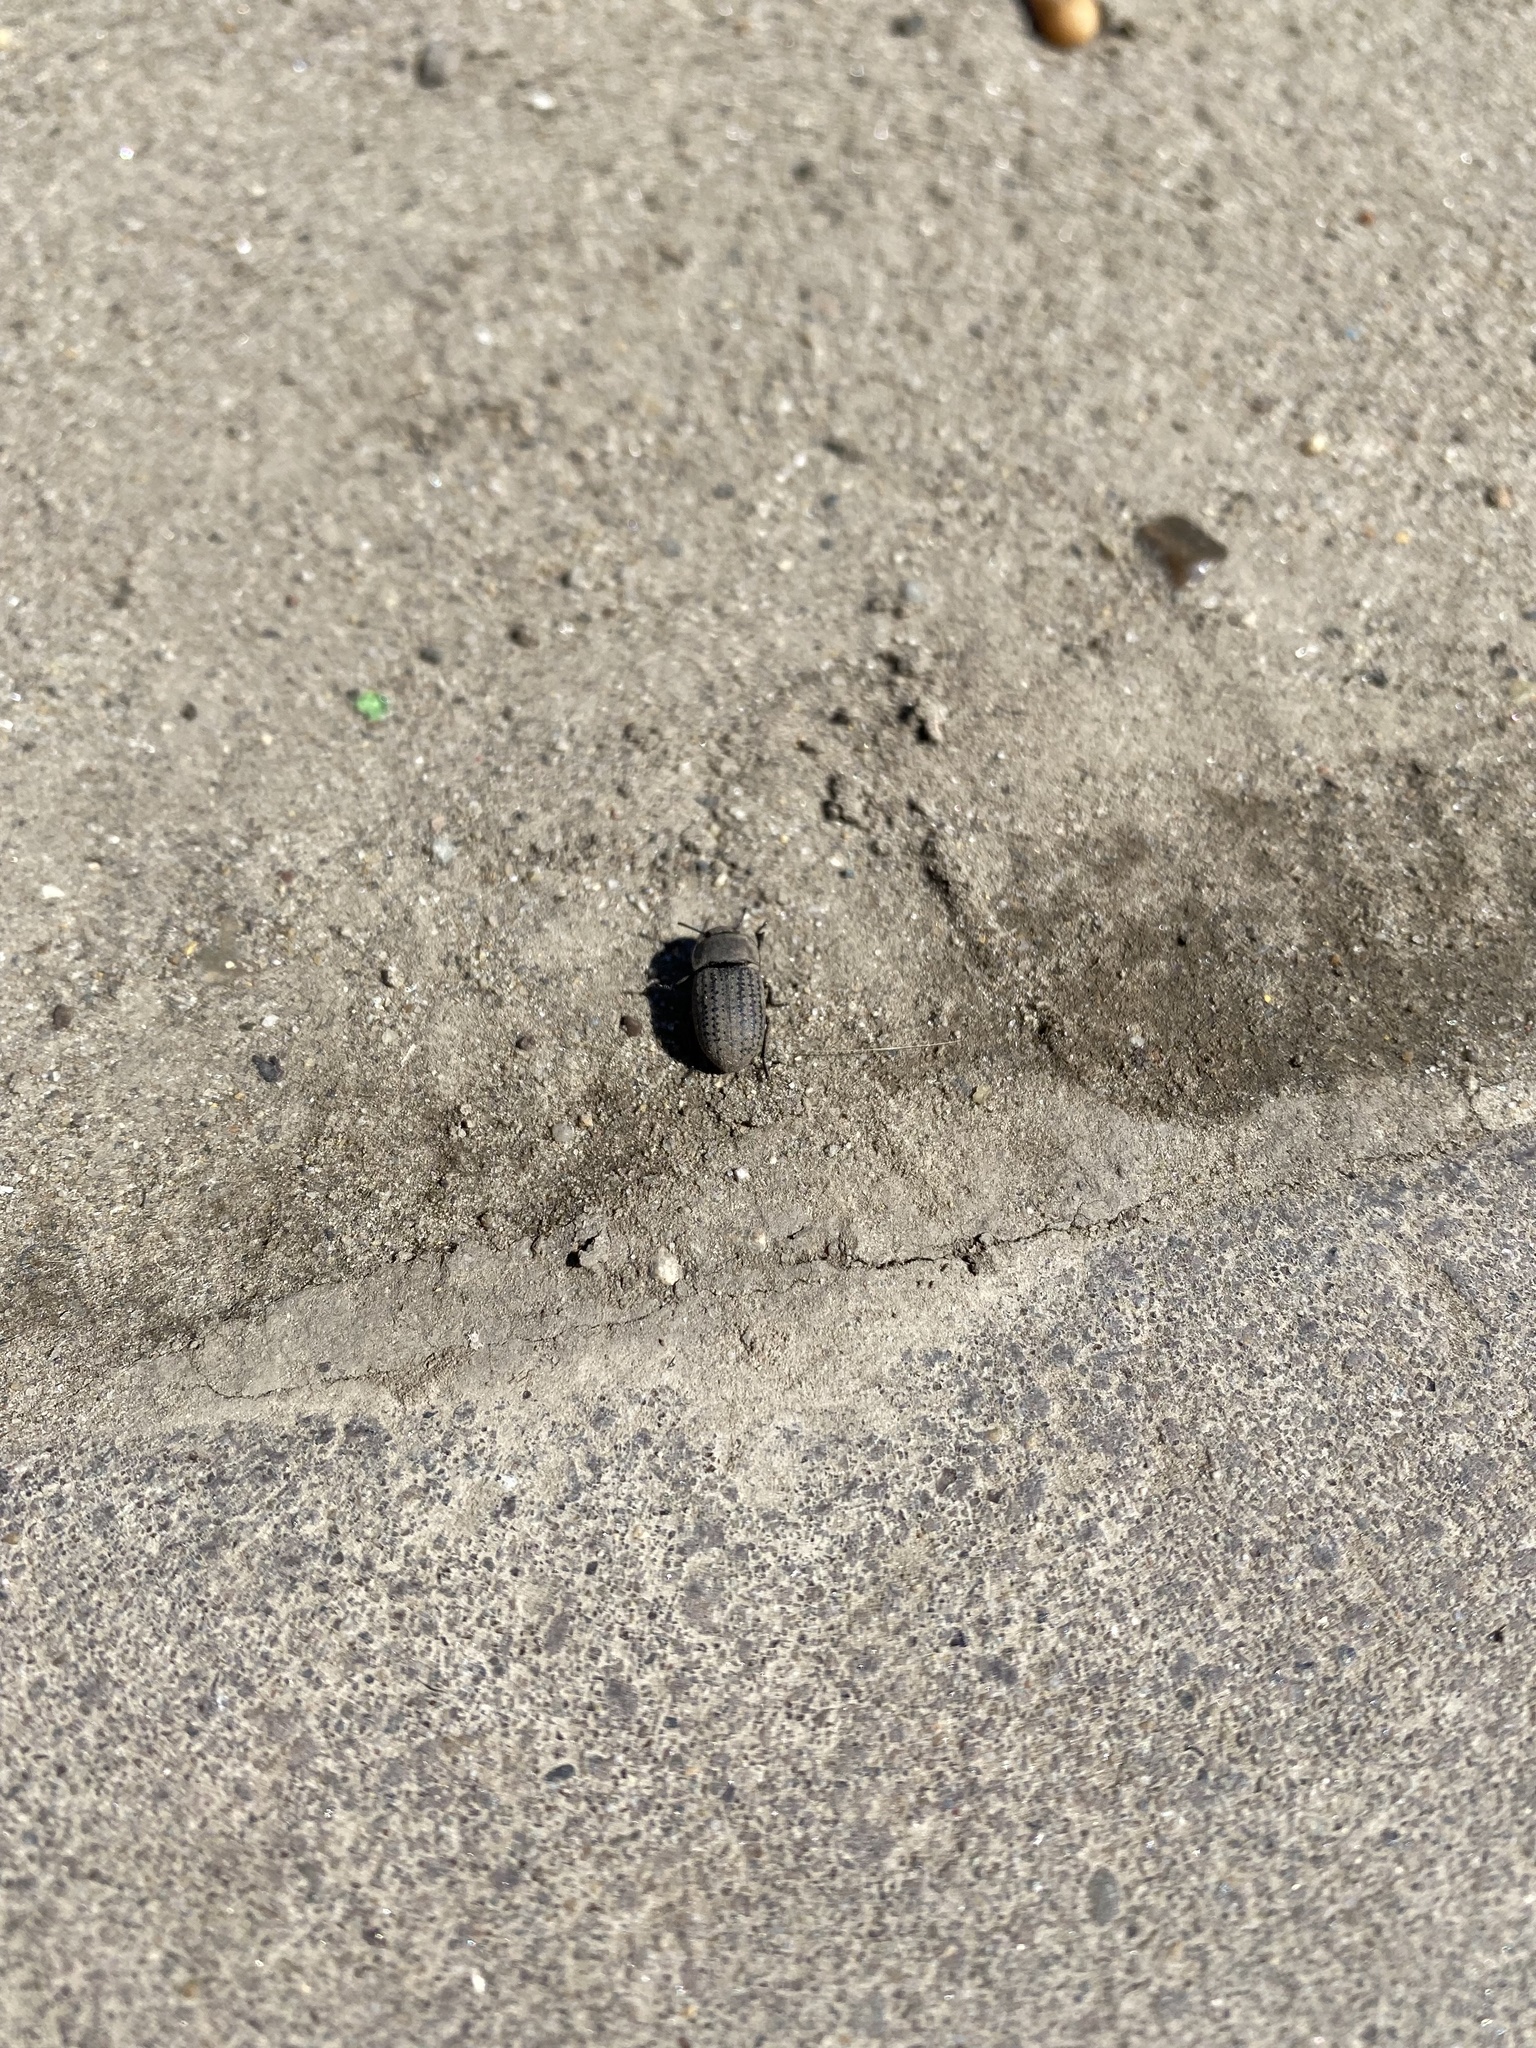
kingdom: Animalia
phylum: Arthropoda
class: Insecta
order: Coleoptera
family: Tenebrionidae
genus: Opatrum
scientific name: Opatrum sabulosum
